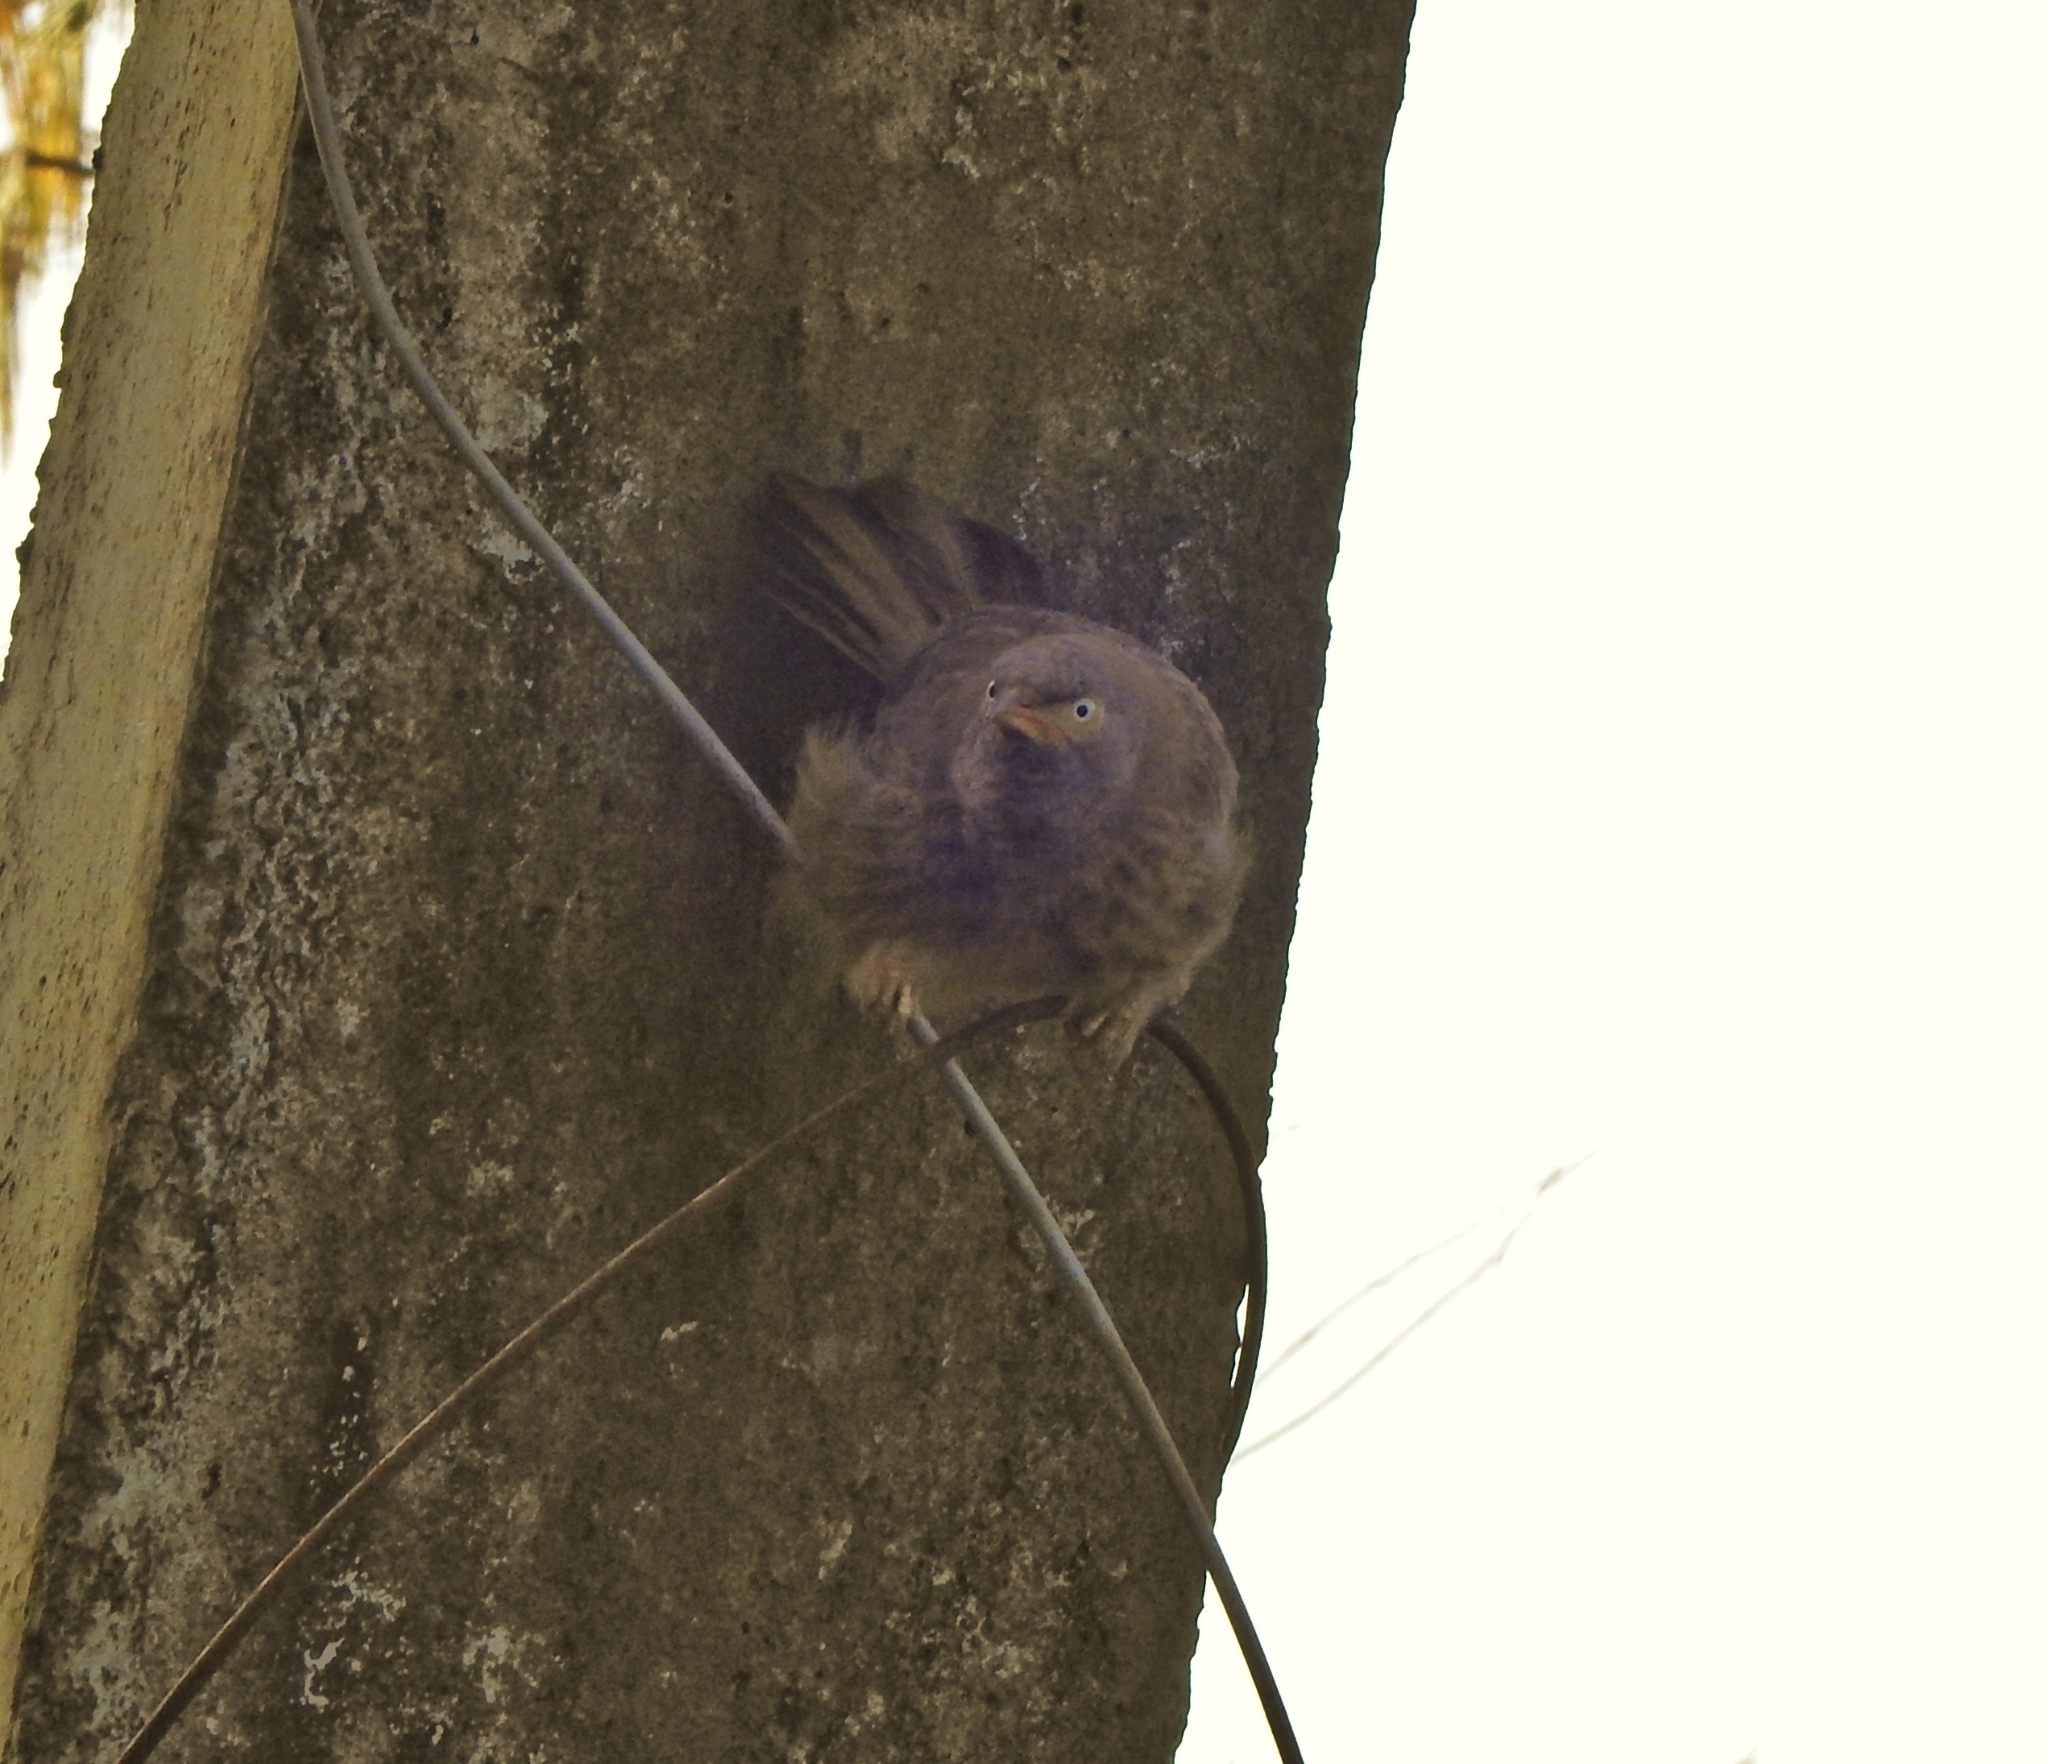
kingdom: Animalia
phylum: Chordata
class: Aves
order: Passeriformes
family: Leiothrichidae
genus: Turdoides
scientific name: Turdoides striata
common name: Jungle babbler
